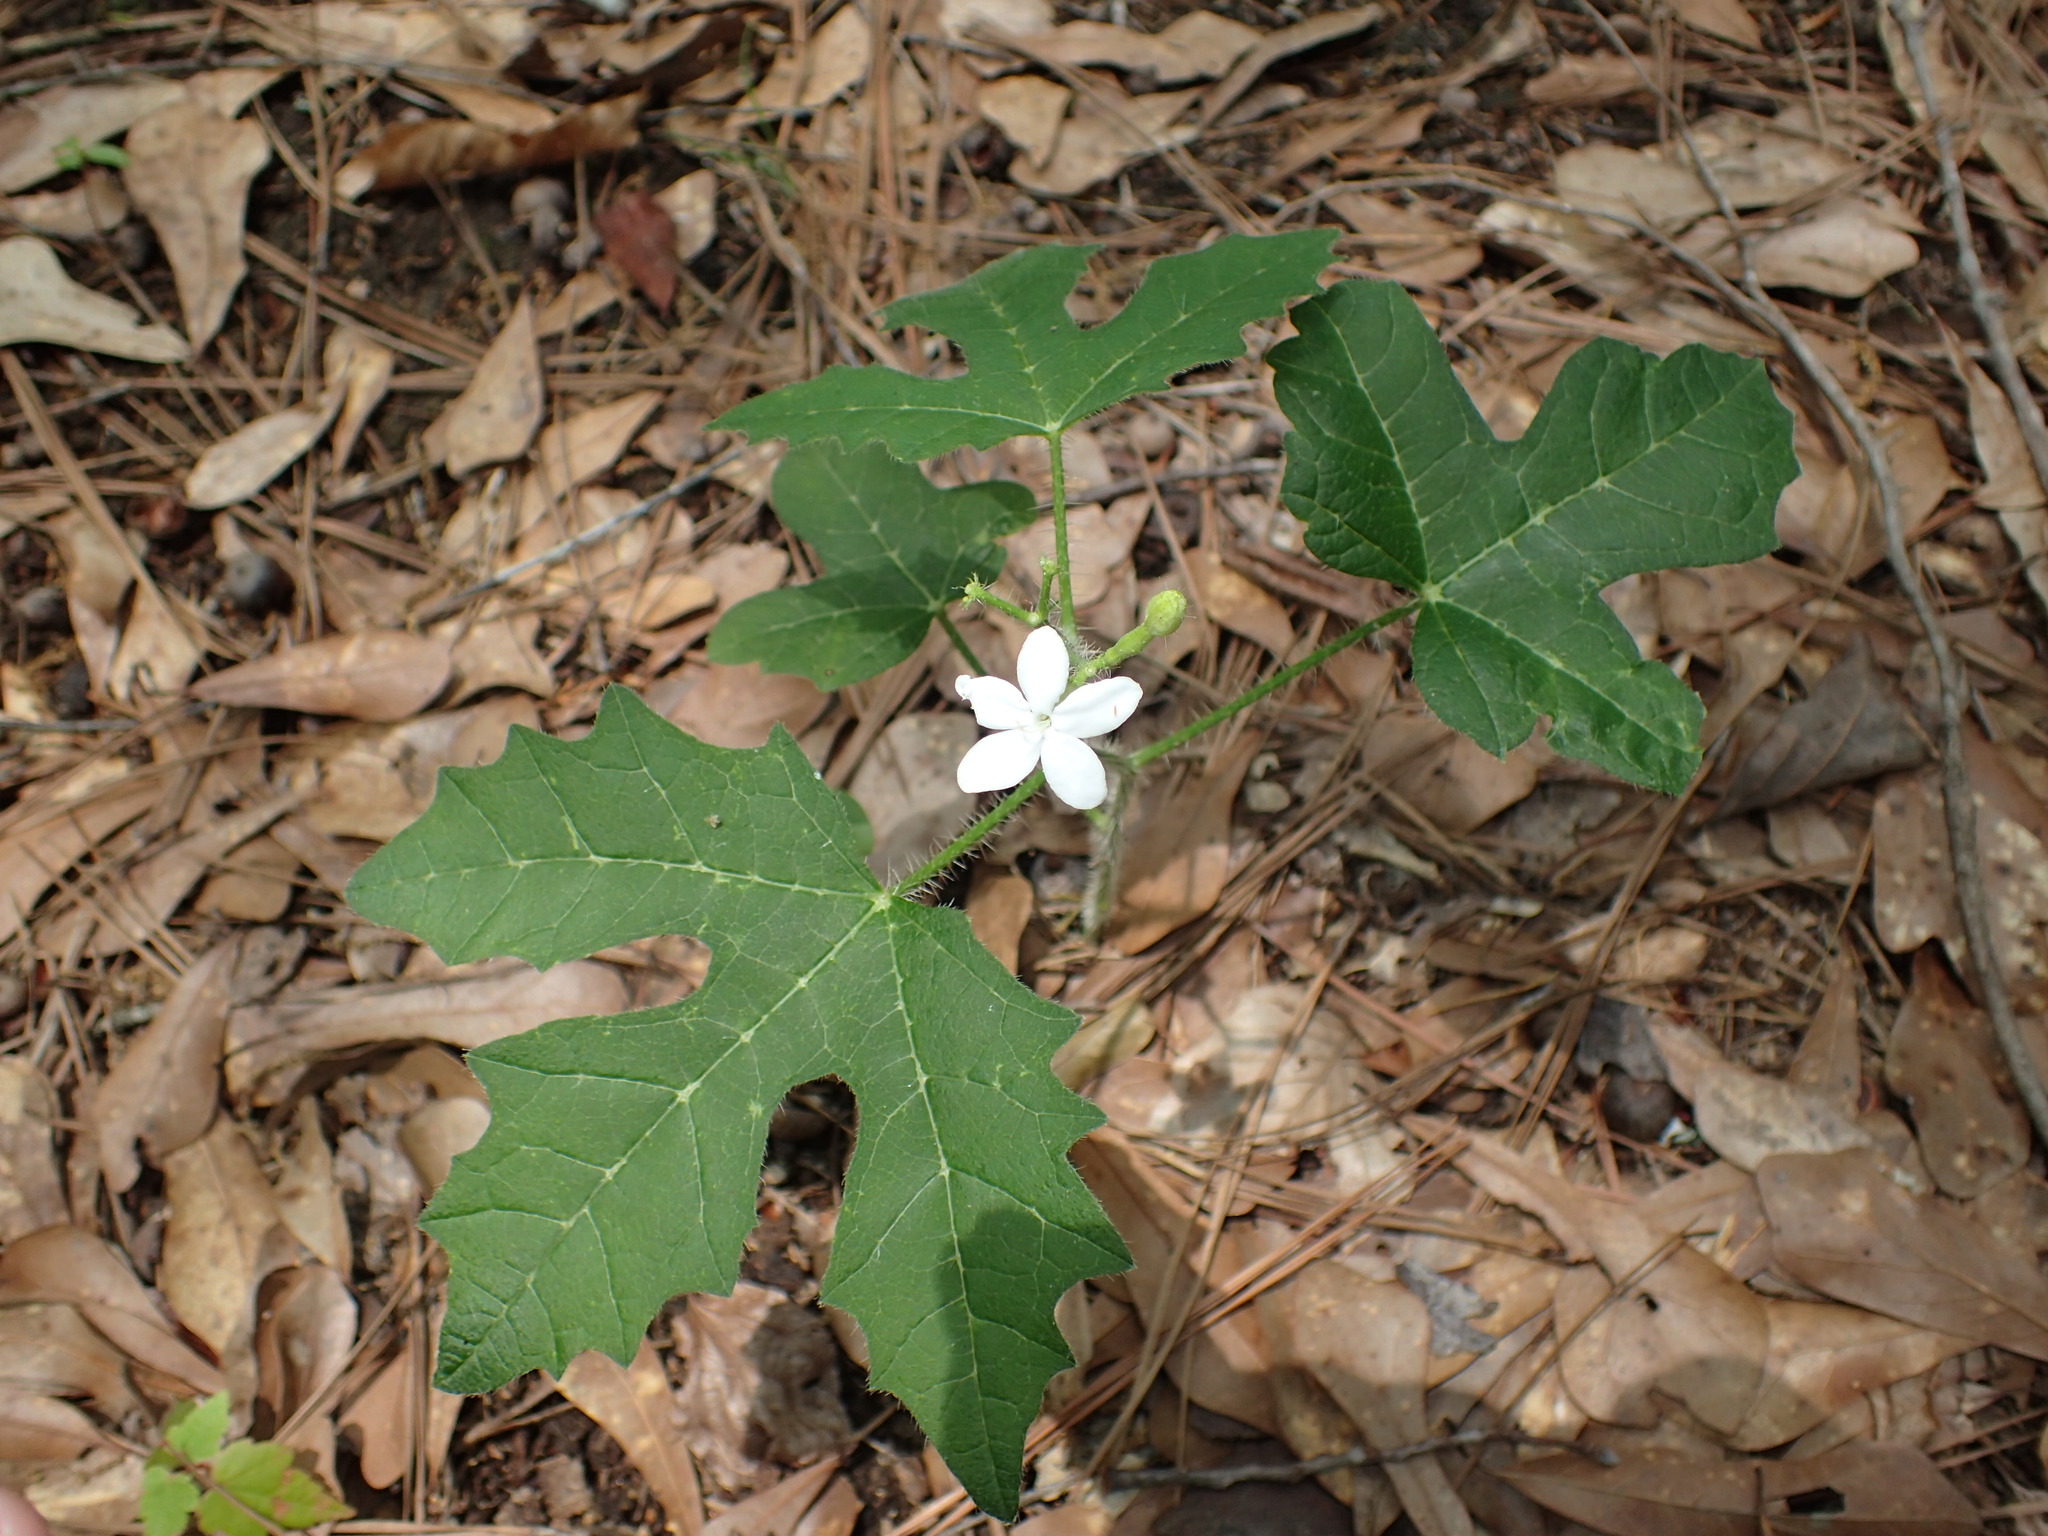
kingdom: Plantae
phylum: Tracheophyta
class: Magnoliopsida
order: Malpighiales
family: Euphorbiaceae
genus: Cnidoscolus
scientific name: Cnidoscolus stimulosus
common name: Bull-nettle
